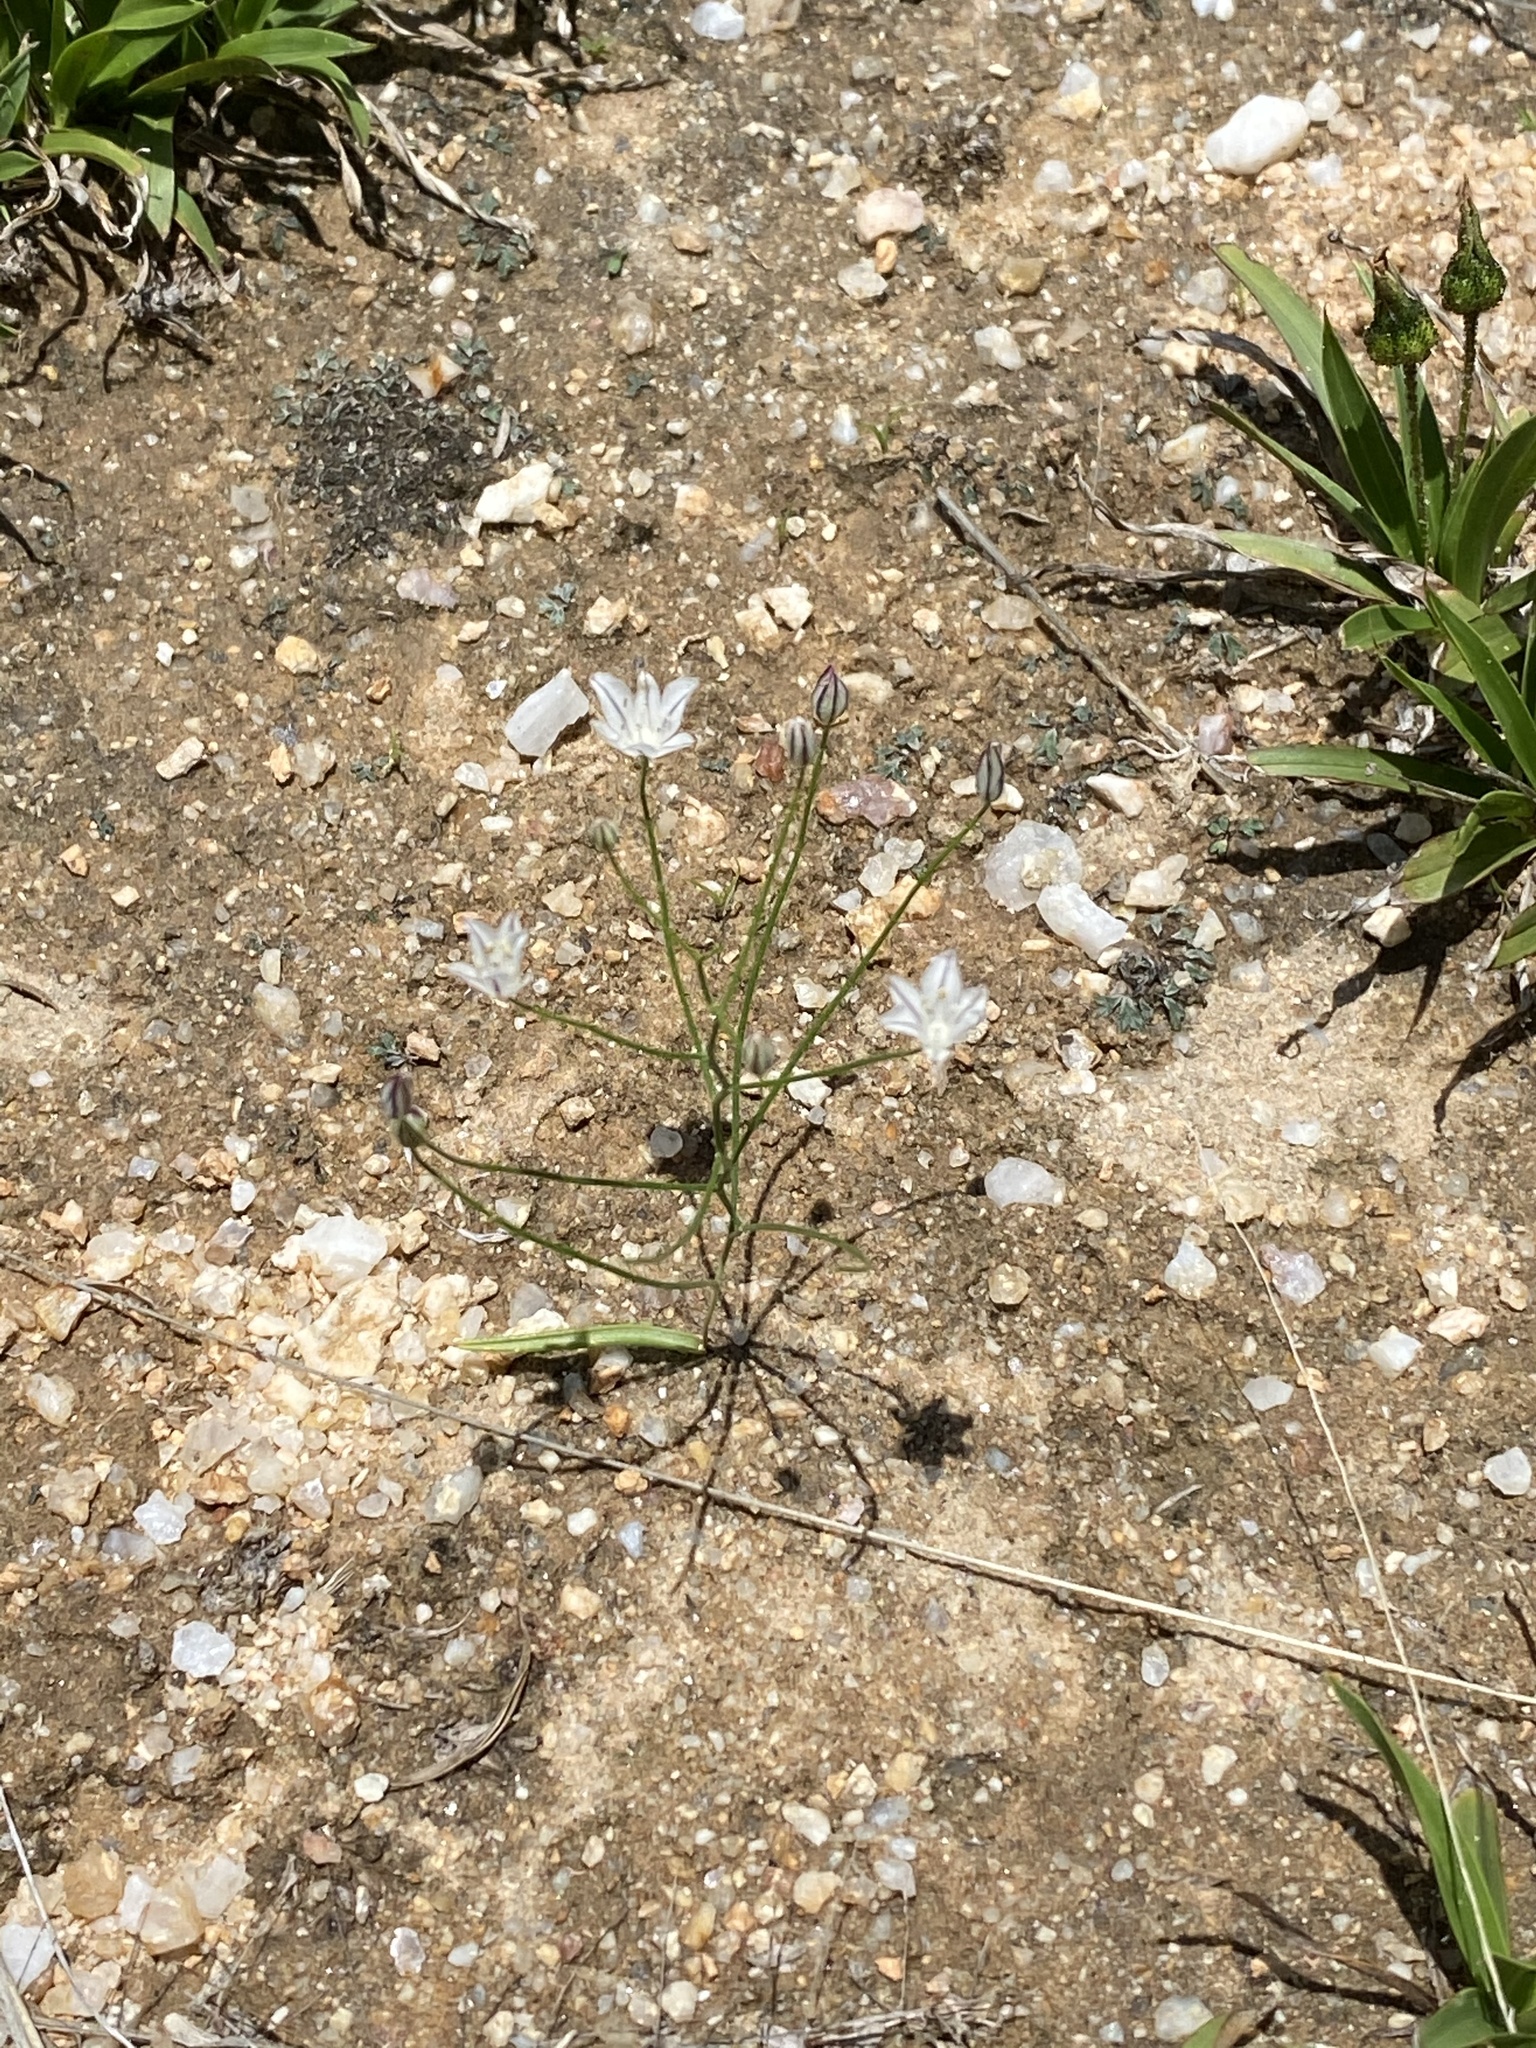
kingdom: Plantae
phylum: Tracheophyta
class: Liliopsida
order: Asparagales
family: Asparagaceae
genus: Eriospermum
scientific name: Eriospermum bakerianum
